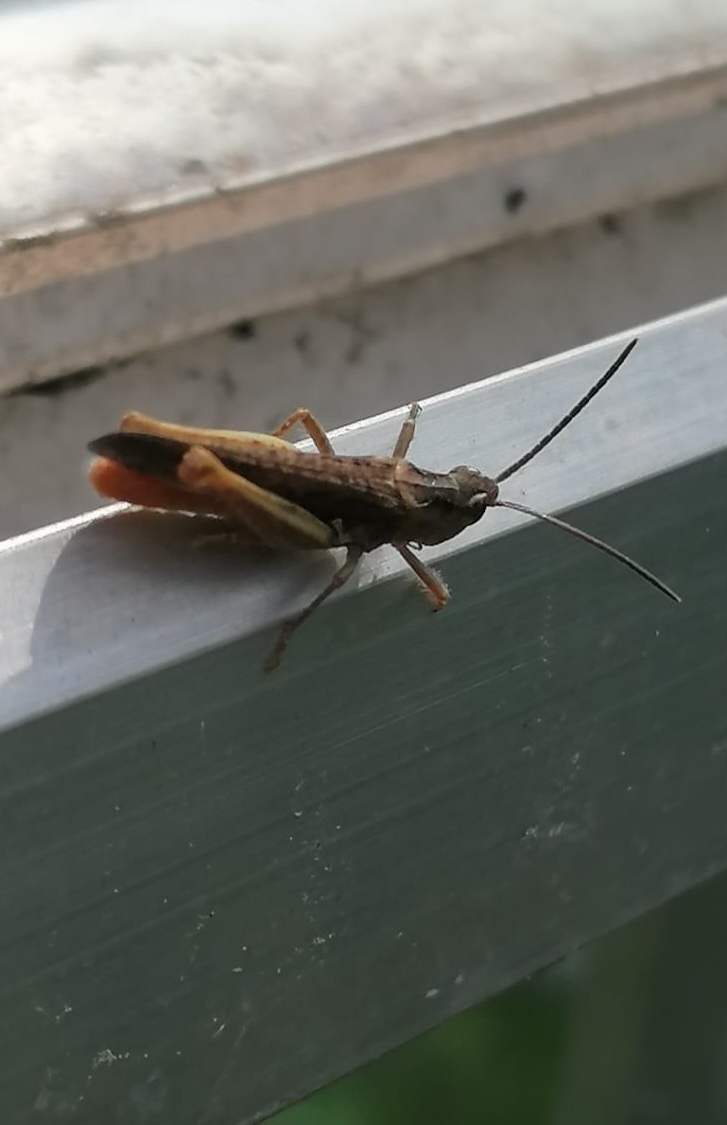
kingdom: Animalia
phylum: Arthropoda
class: Insecta
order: Orthoptera
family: Acrididae
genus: Chorthippus
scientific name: Chorthippus brunneus
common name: Field grasshopper
